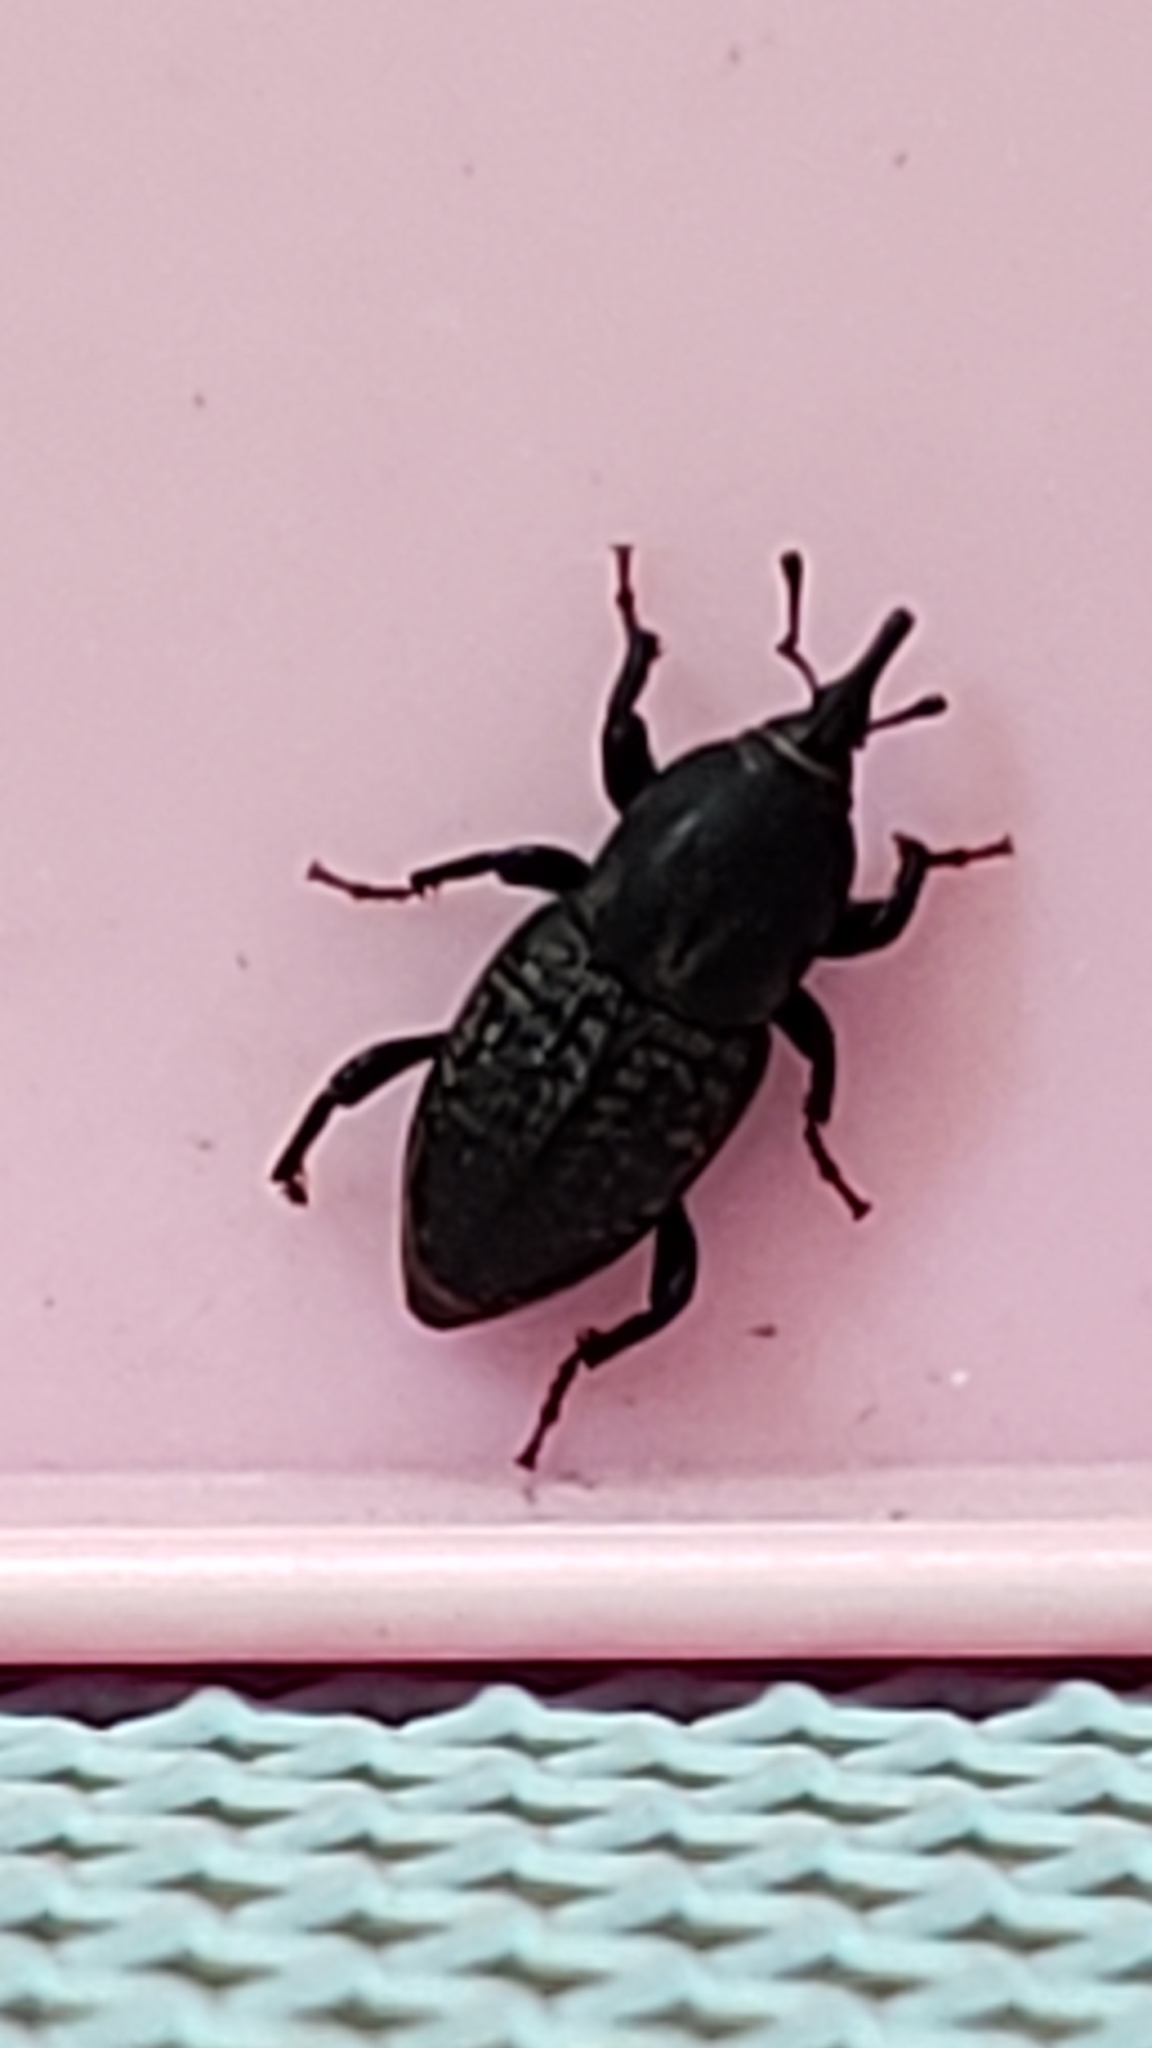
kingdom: Animalia
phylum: Arthropoda
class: Insecta
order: Coleoptera
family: Dryophthoridae
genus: Sphenophorus
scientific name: Sphenophorus cicatristriatus
